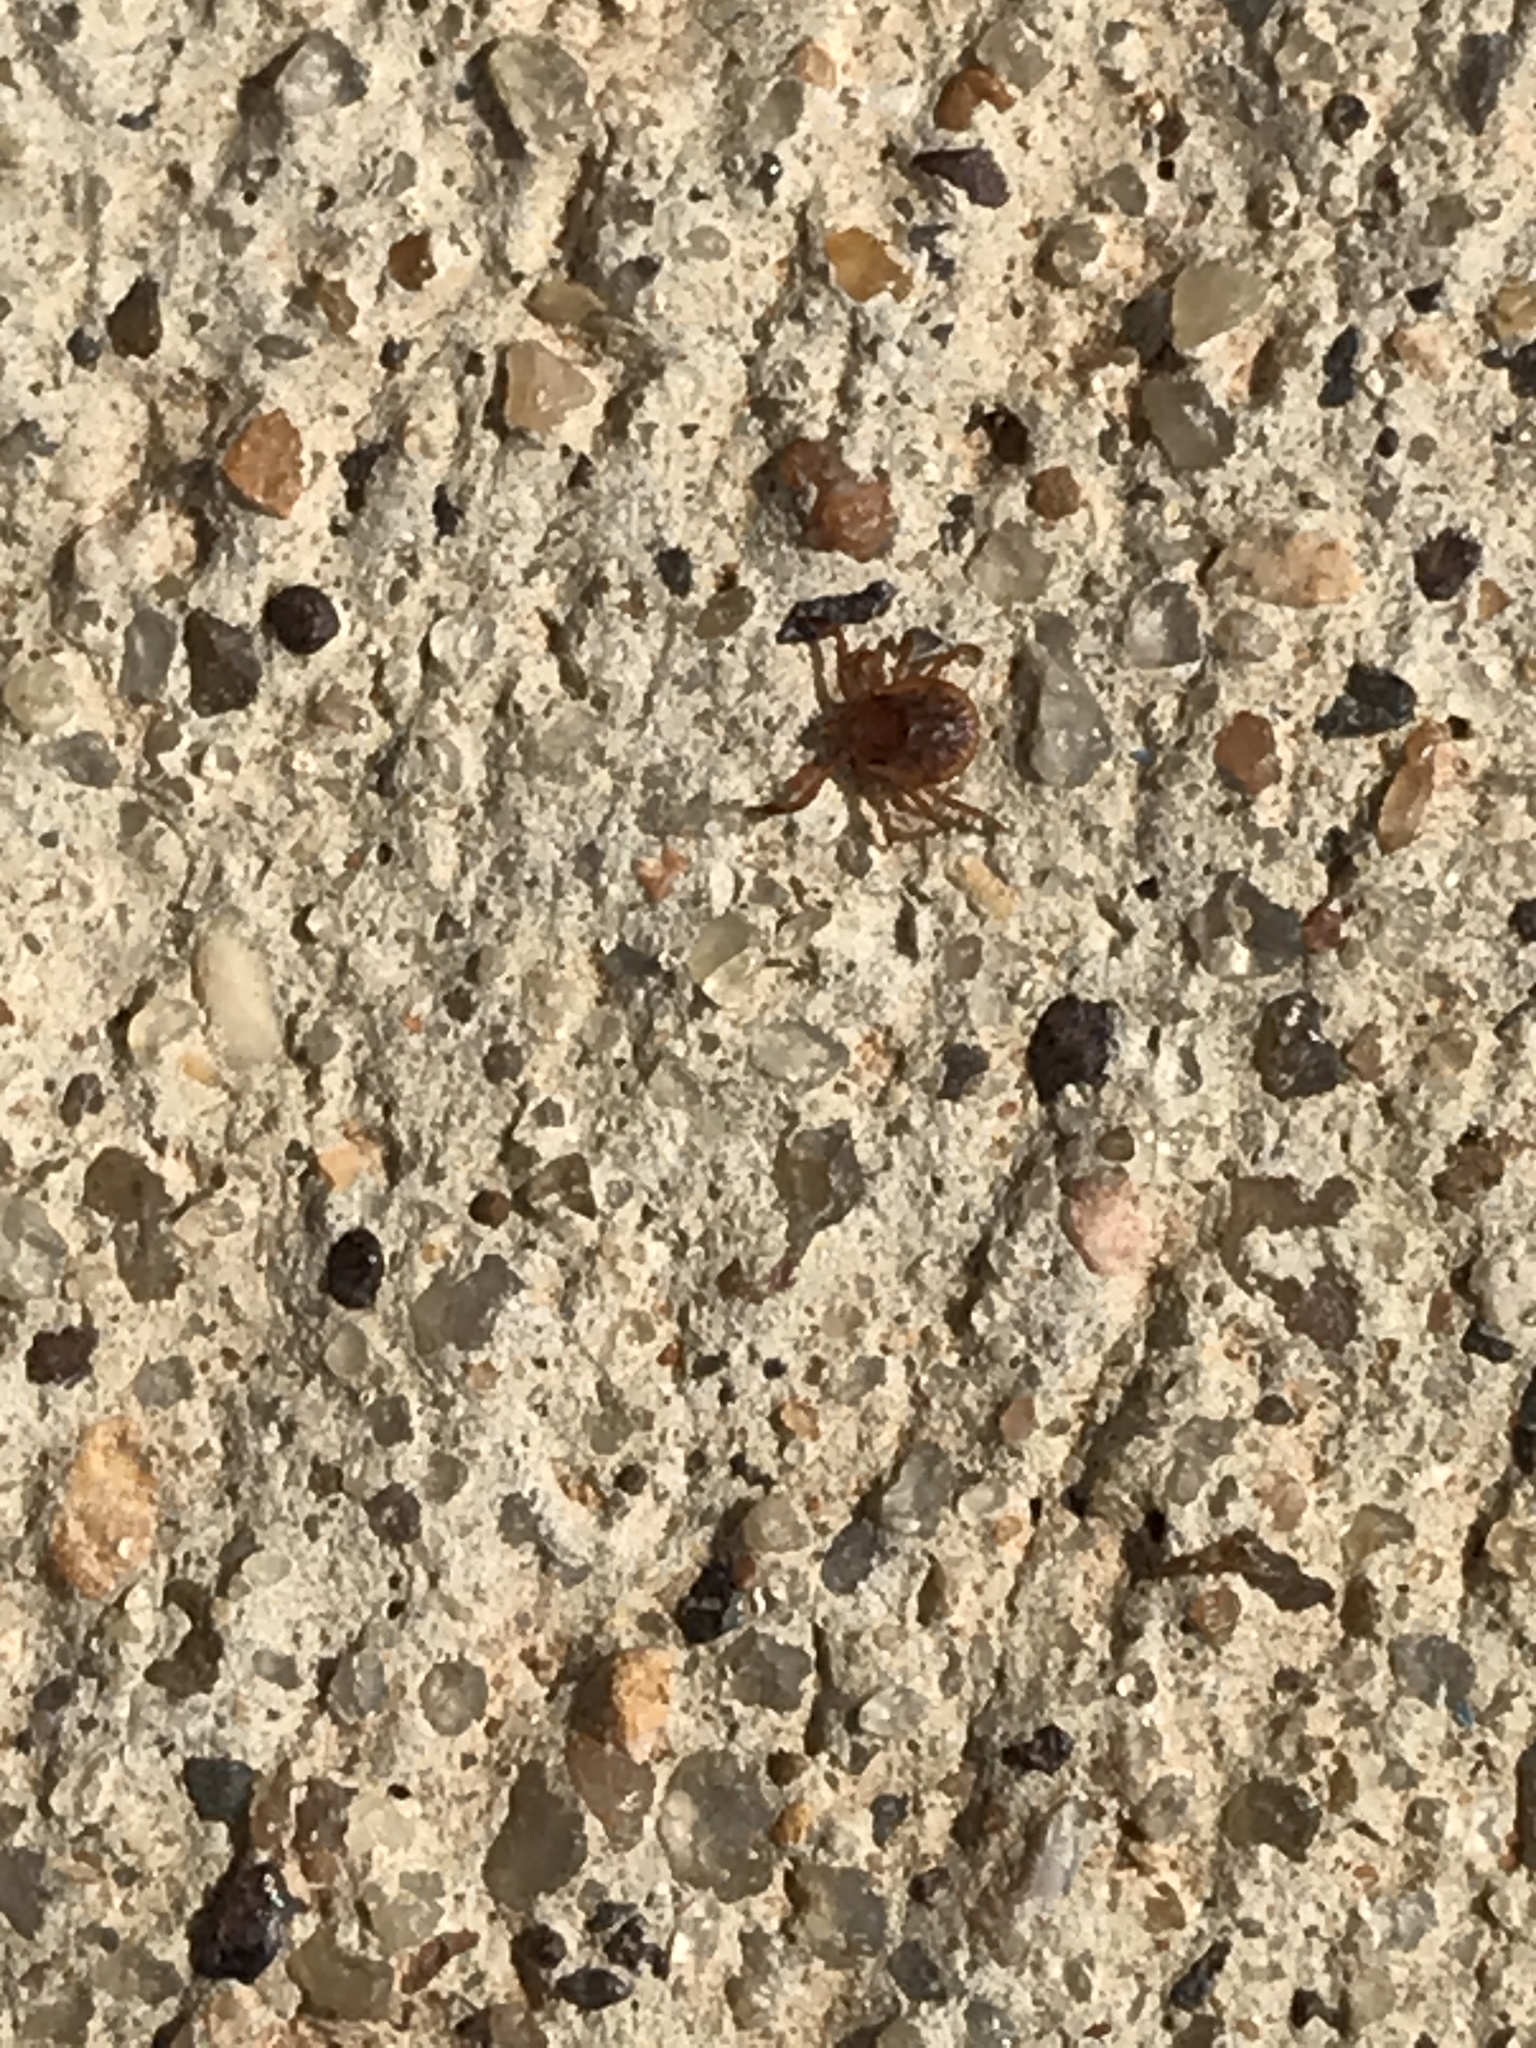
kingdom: Animalia
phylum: Arthropoda
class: Arachnida
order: Ixodida
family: Ixodidae
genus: Amblyomma
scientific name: Amblyomma americanum
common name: Lone star tick
